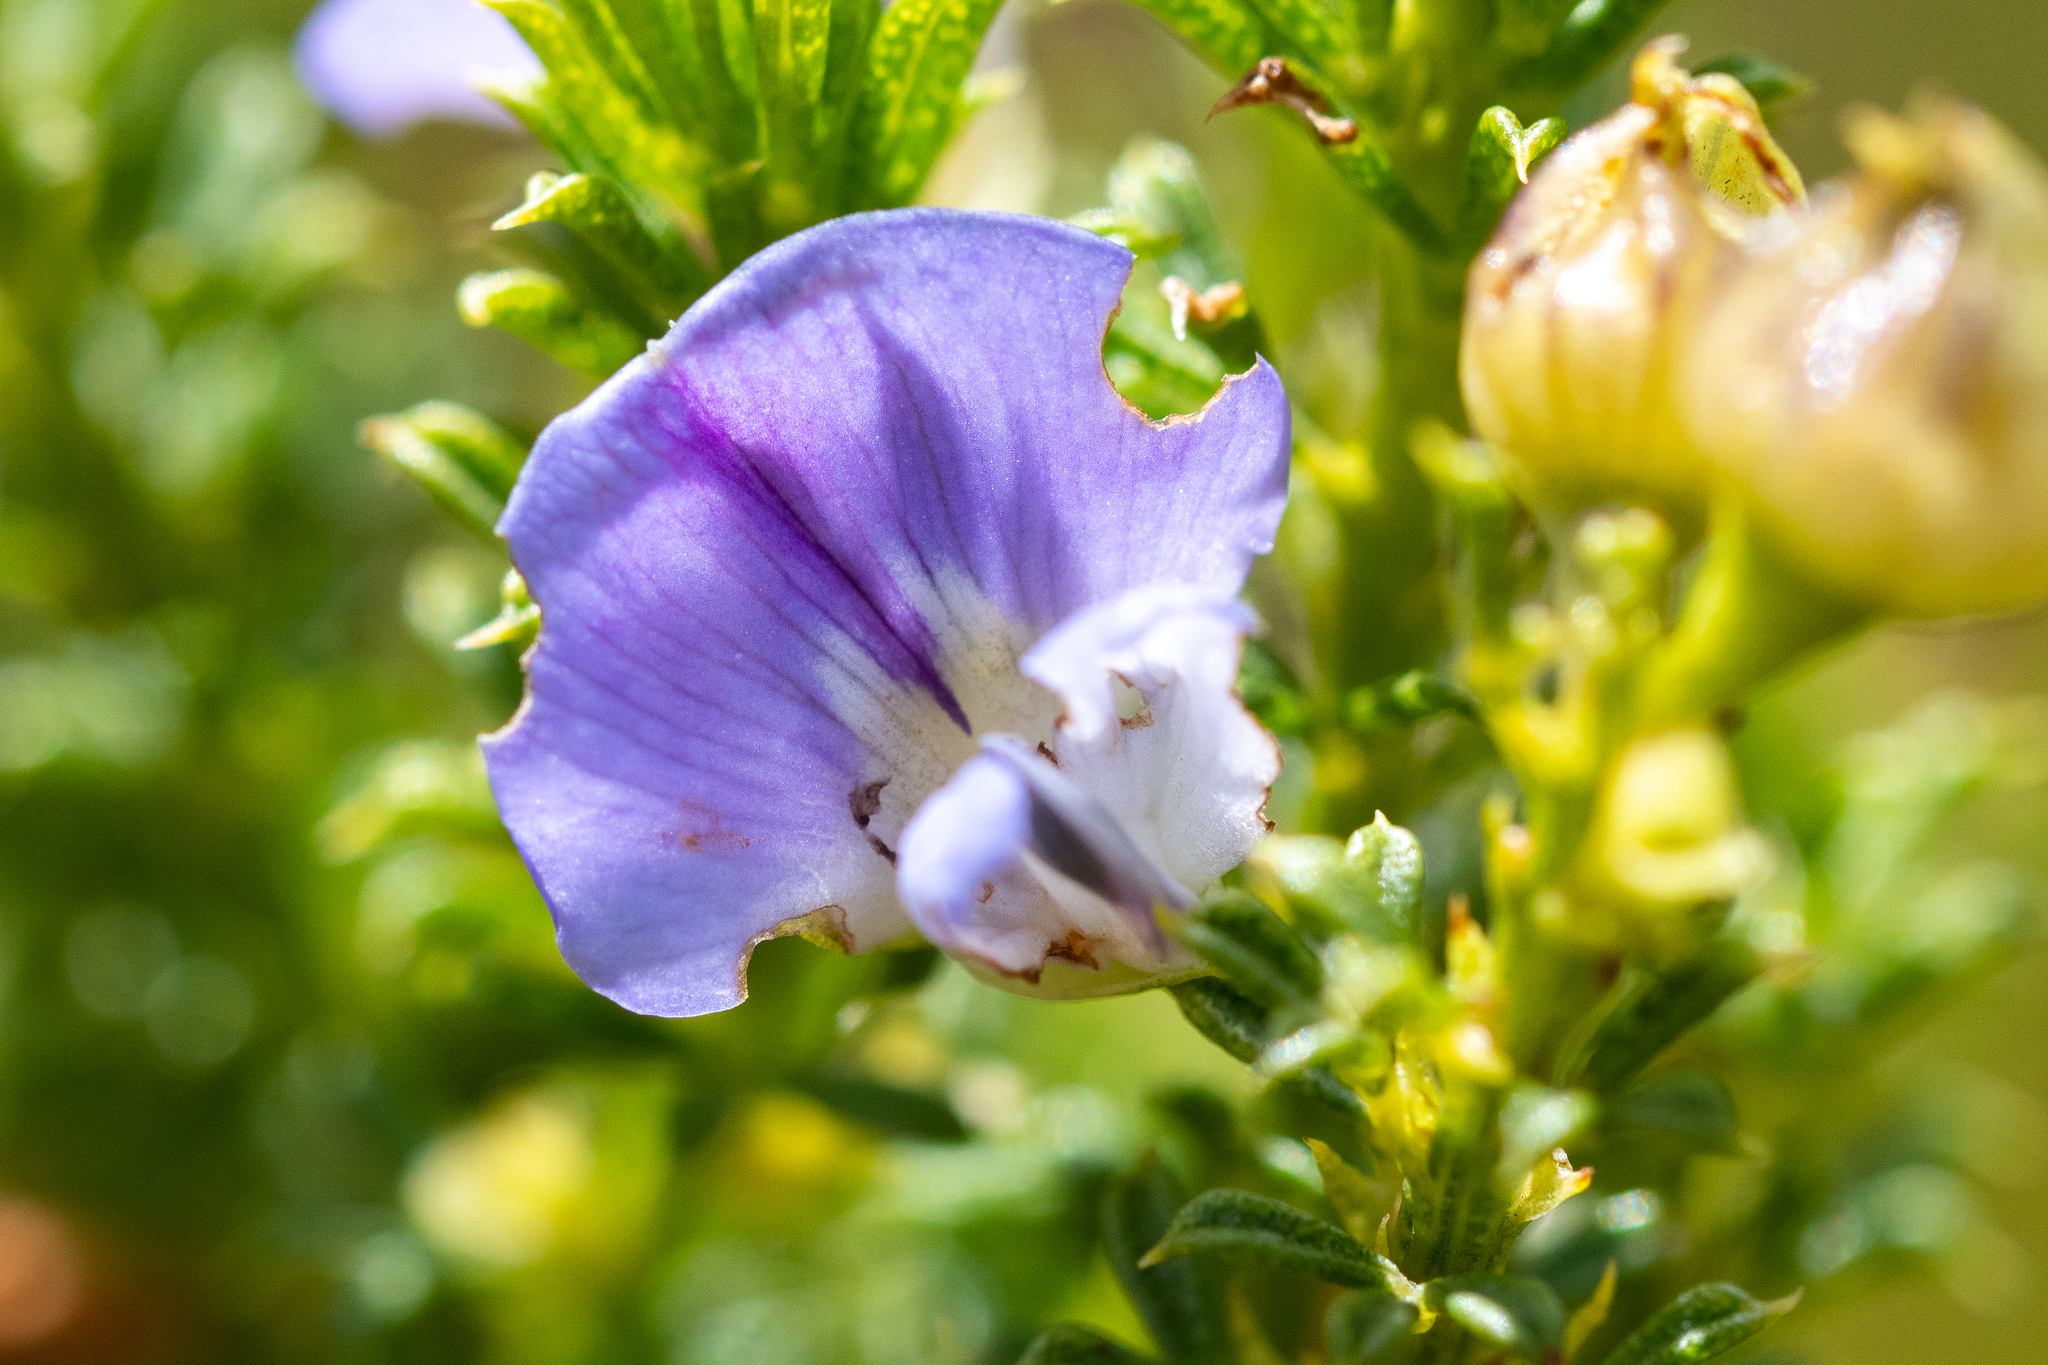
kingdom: Plantae
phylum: Tracheophyta
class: Magnoliopsida
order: Fabales
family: Fabaceae
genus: Psoralea
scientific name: Psoralea aculeata
